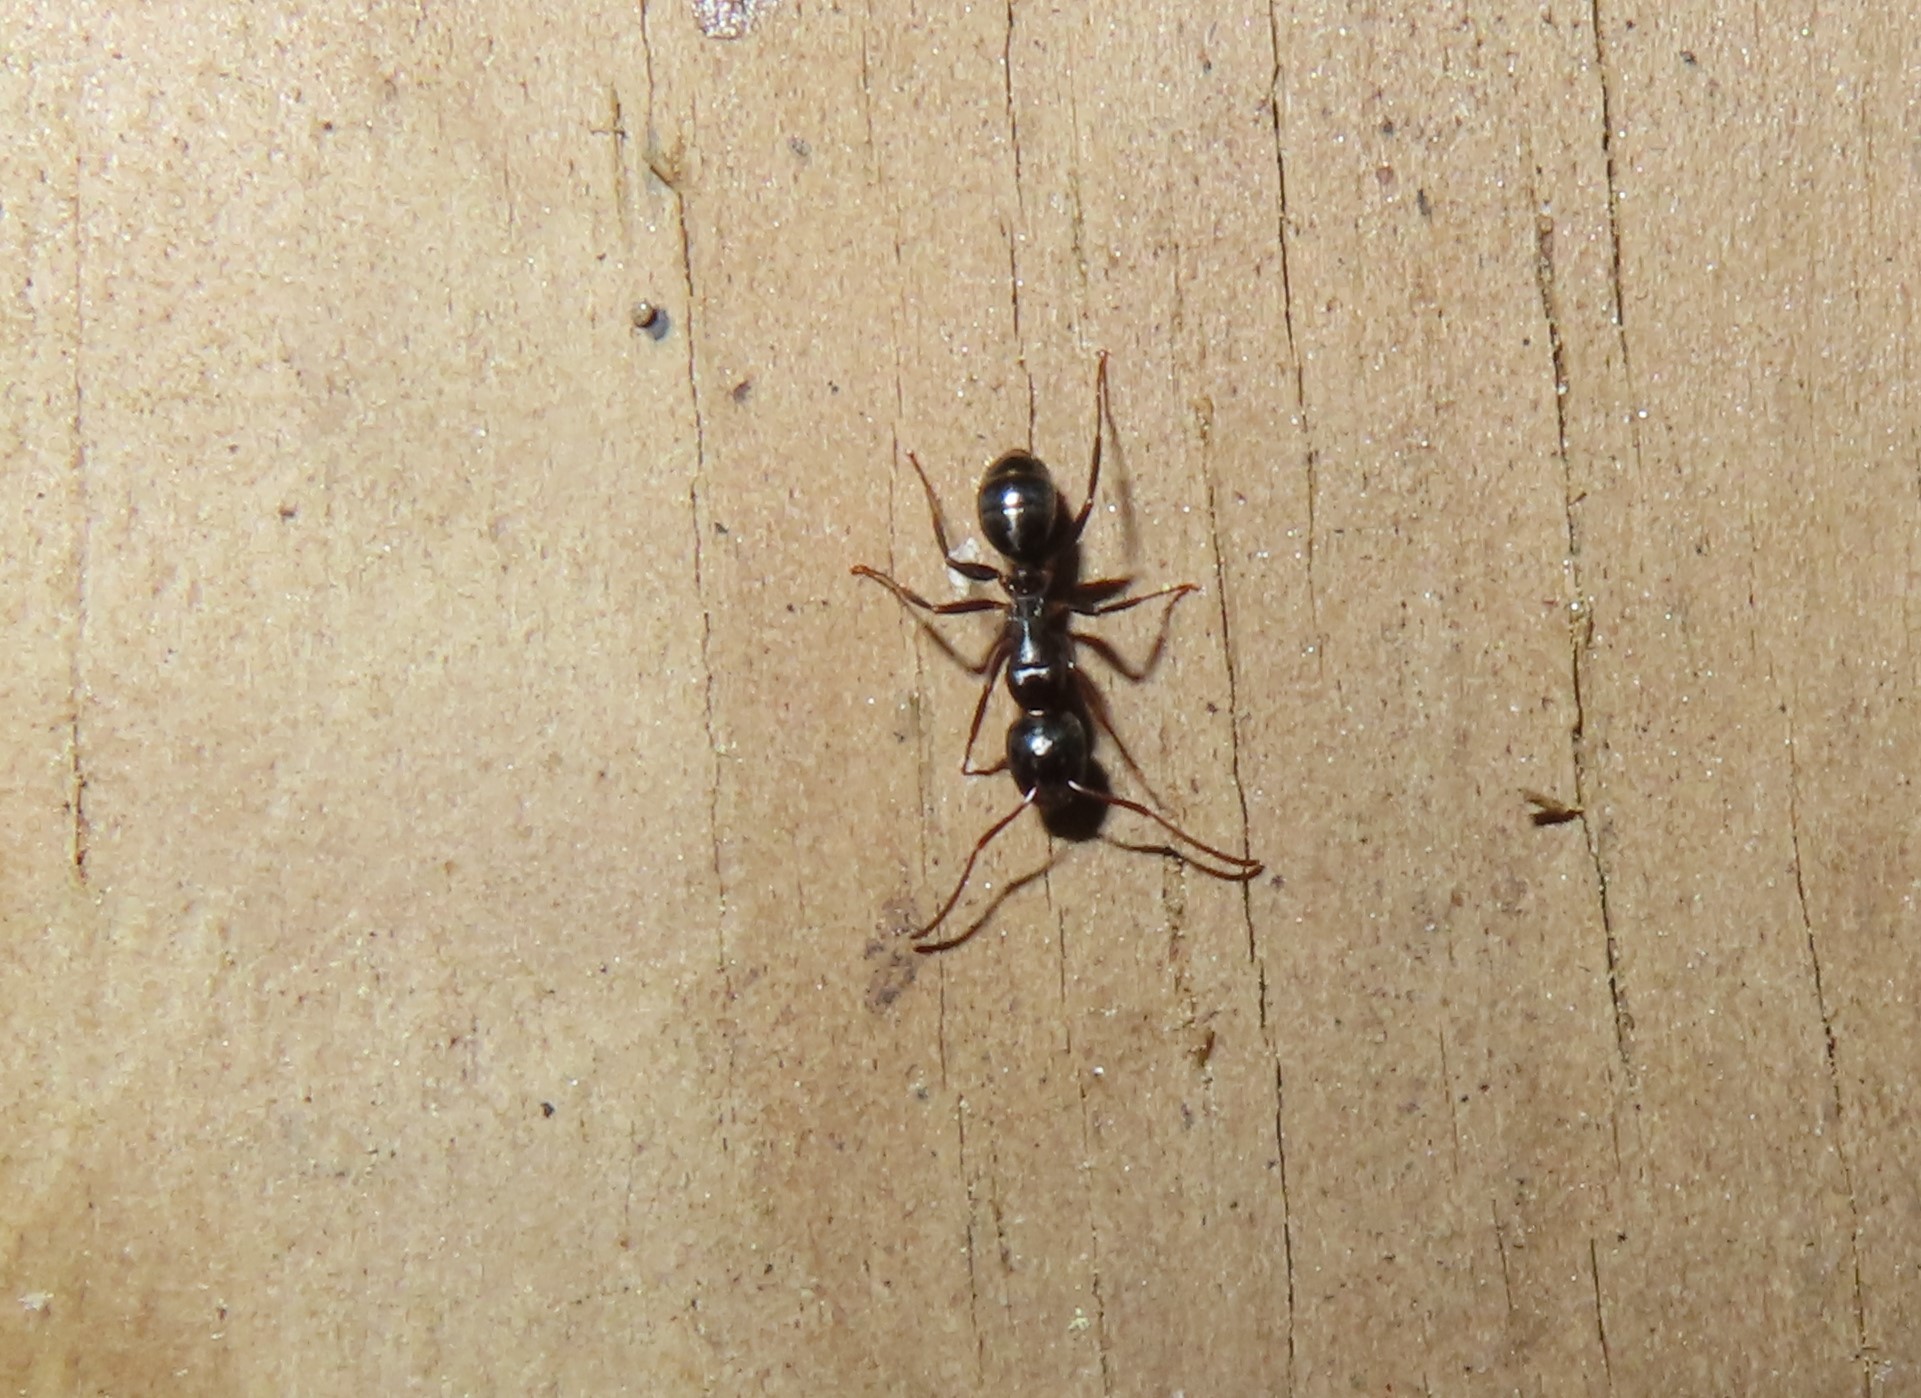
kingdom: Animalia
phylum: Arthropoda
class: Insecta
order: Hymenoptera
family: Formicidae
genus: Myrmentoma
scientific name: Myrmentoma
